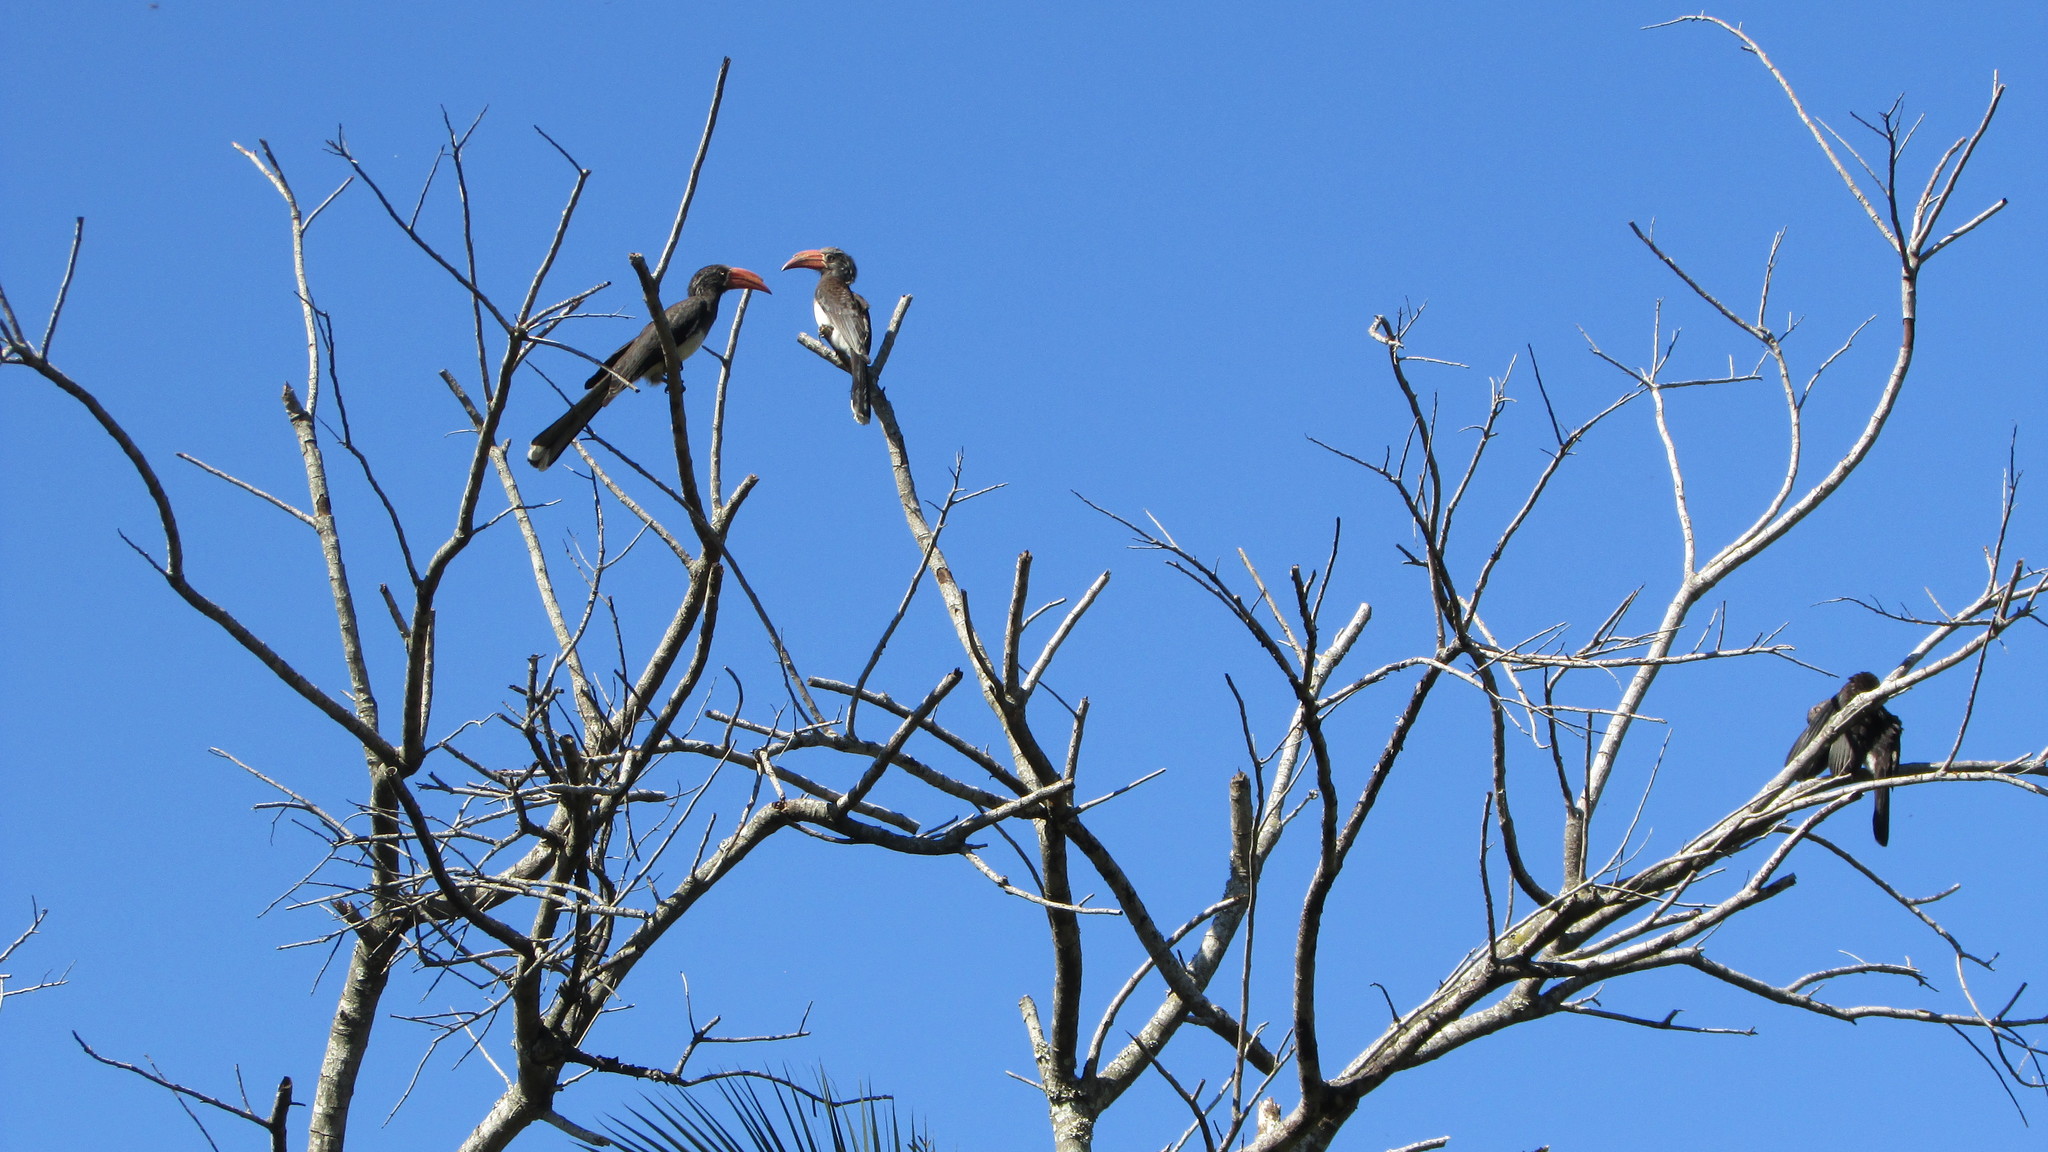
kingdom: Animalia
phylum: Chordata
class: Aves
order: Bucerotiformes
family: Bucerotidae
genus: Lophoceros
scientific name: Lophoceros alboterminatus
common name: Crowned hornbill
